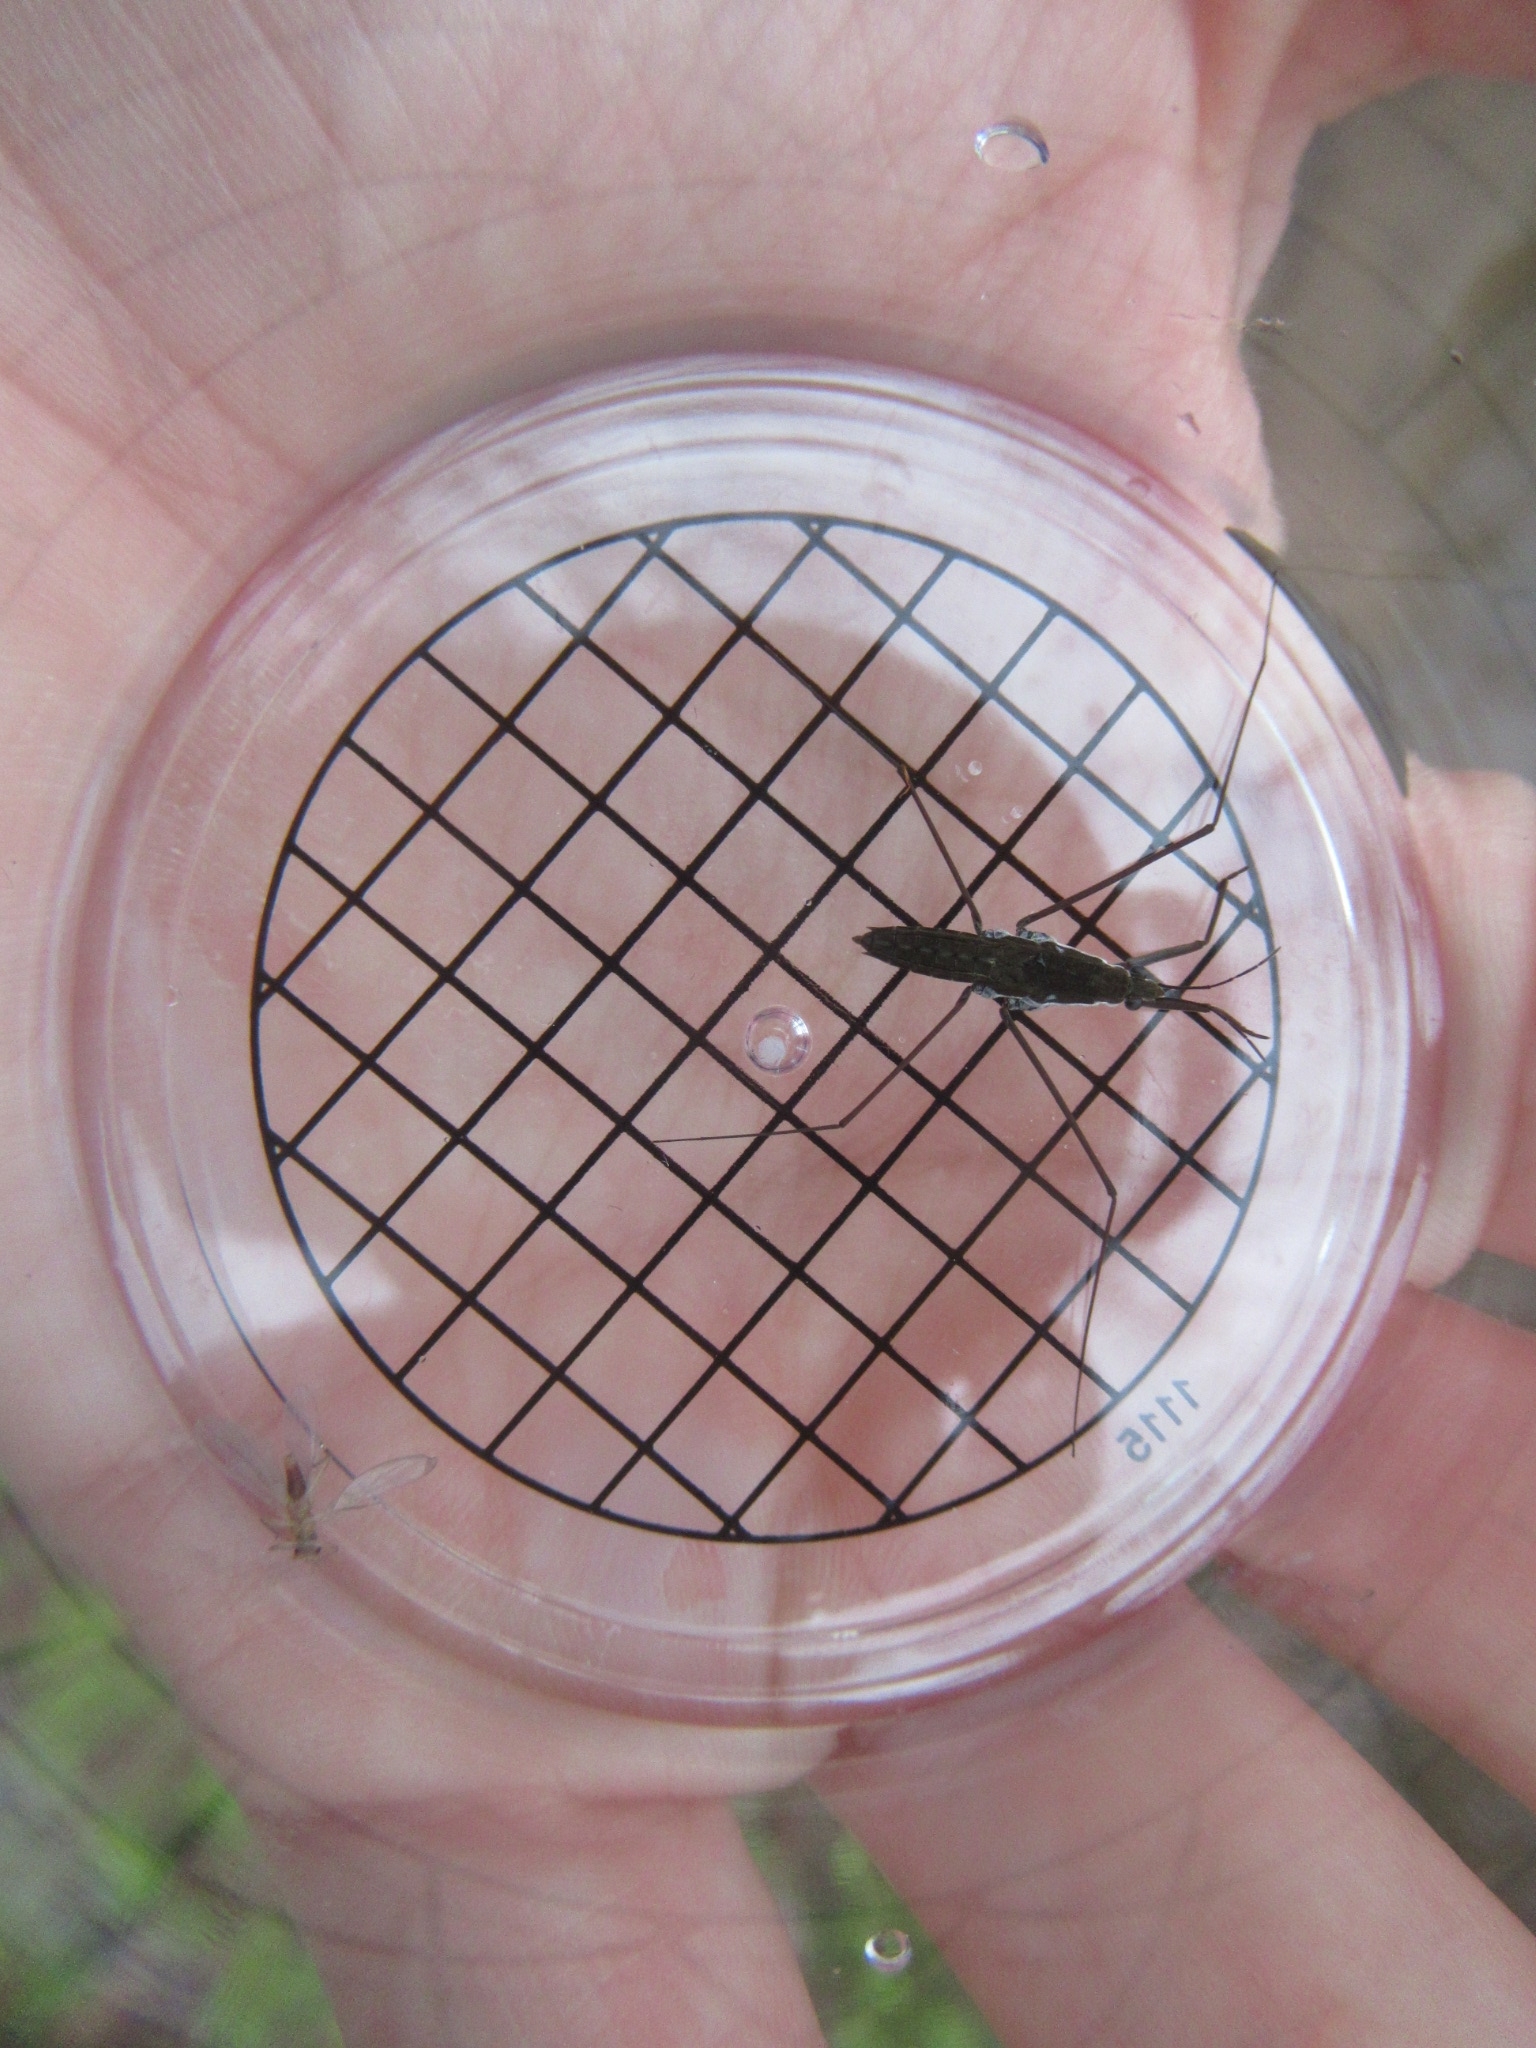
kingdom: Animalia
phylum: Arthropoda
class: Insecta
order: Hemiptera
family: Gerridae
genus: Aquarius
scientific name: Aquarius
